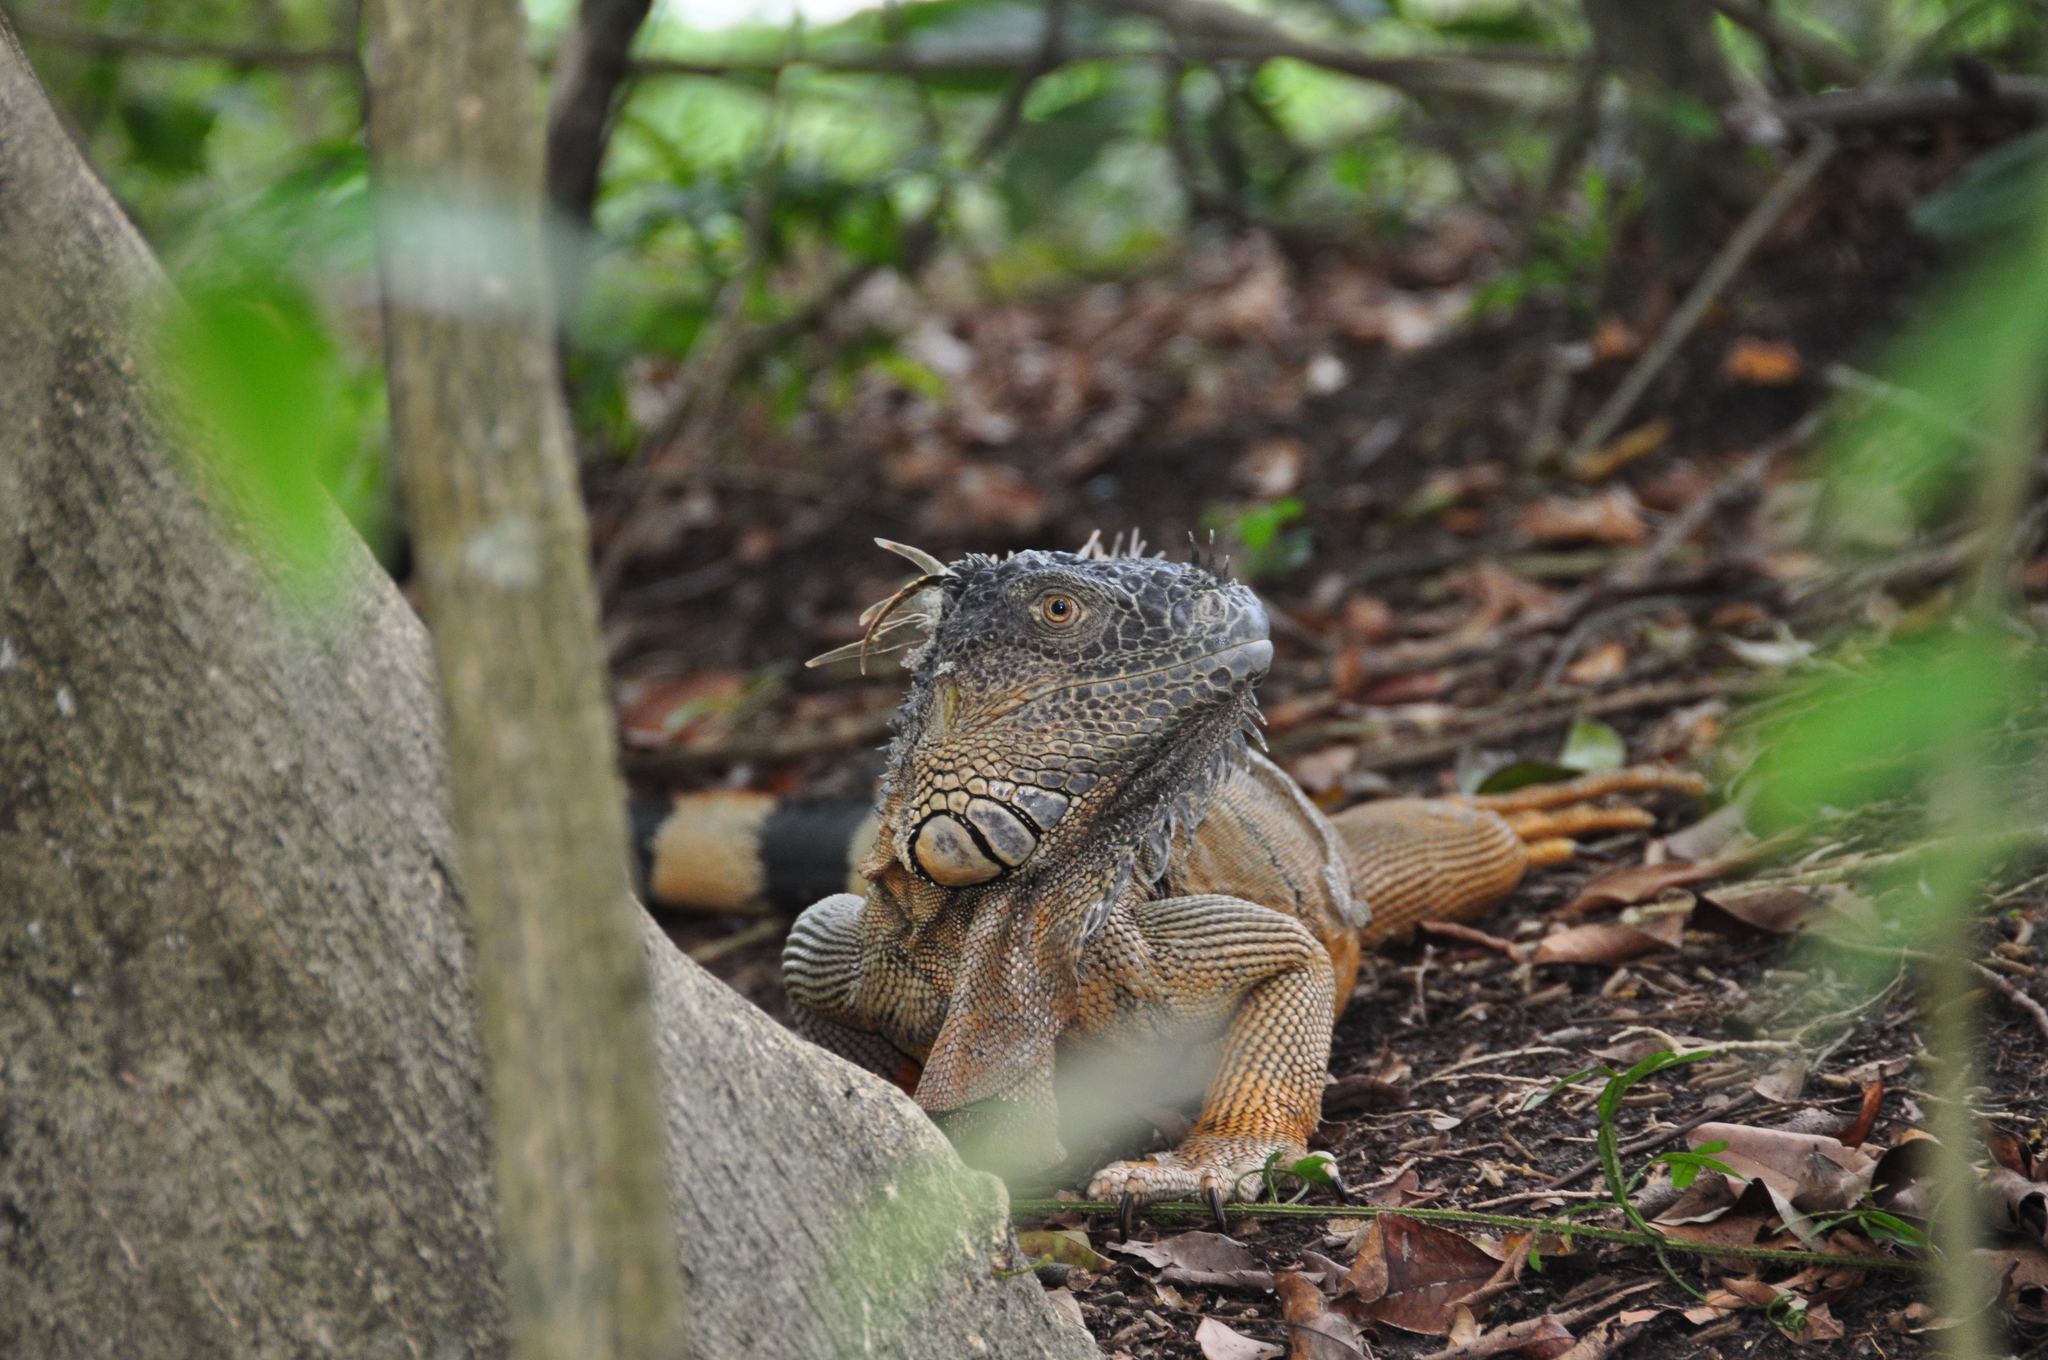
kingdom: Animalia
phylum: Chordata
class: Squamata
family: Iguanidae
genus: Iguana
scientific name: Iguana iguana
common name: Green iguana
